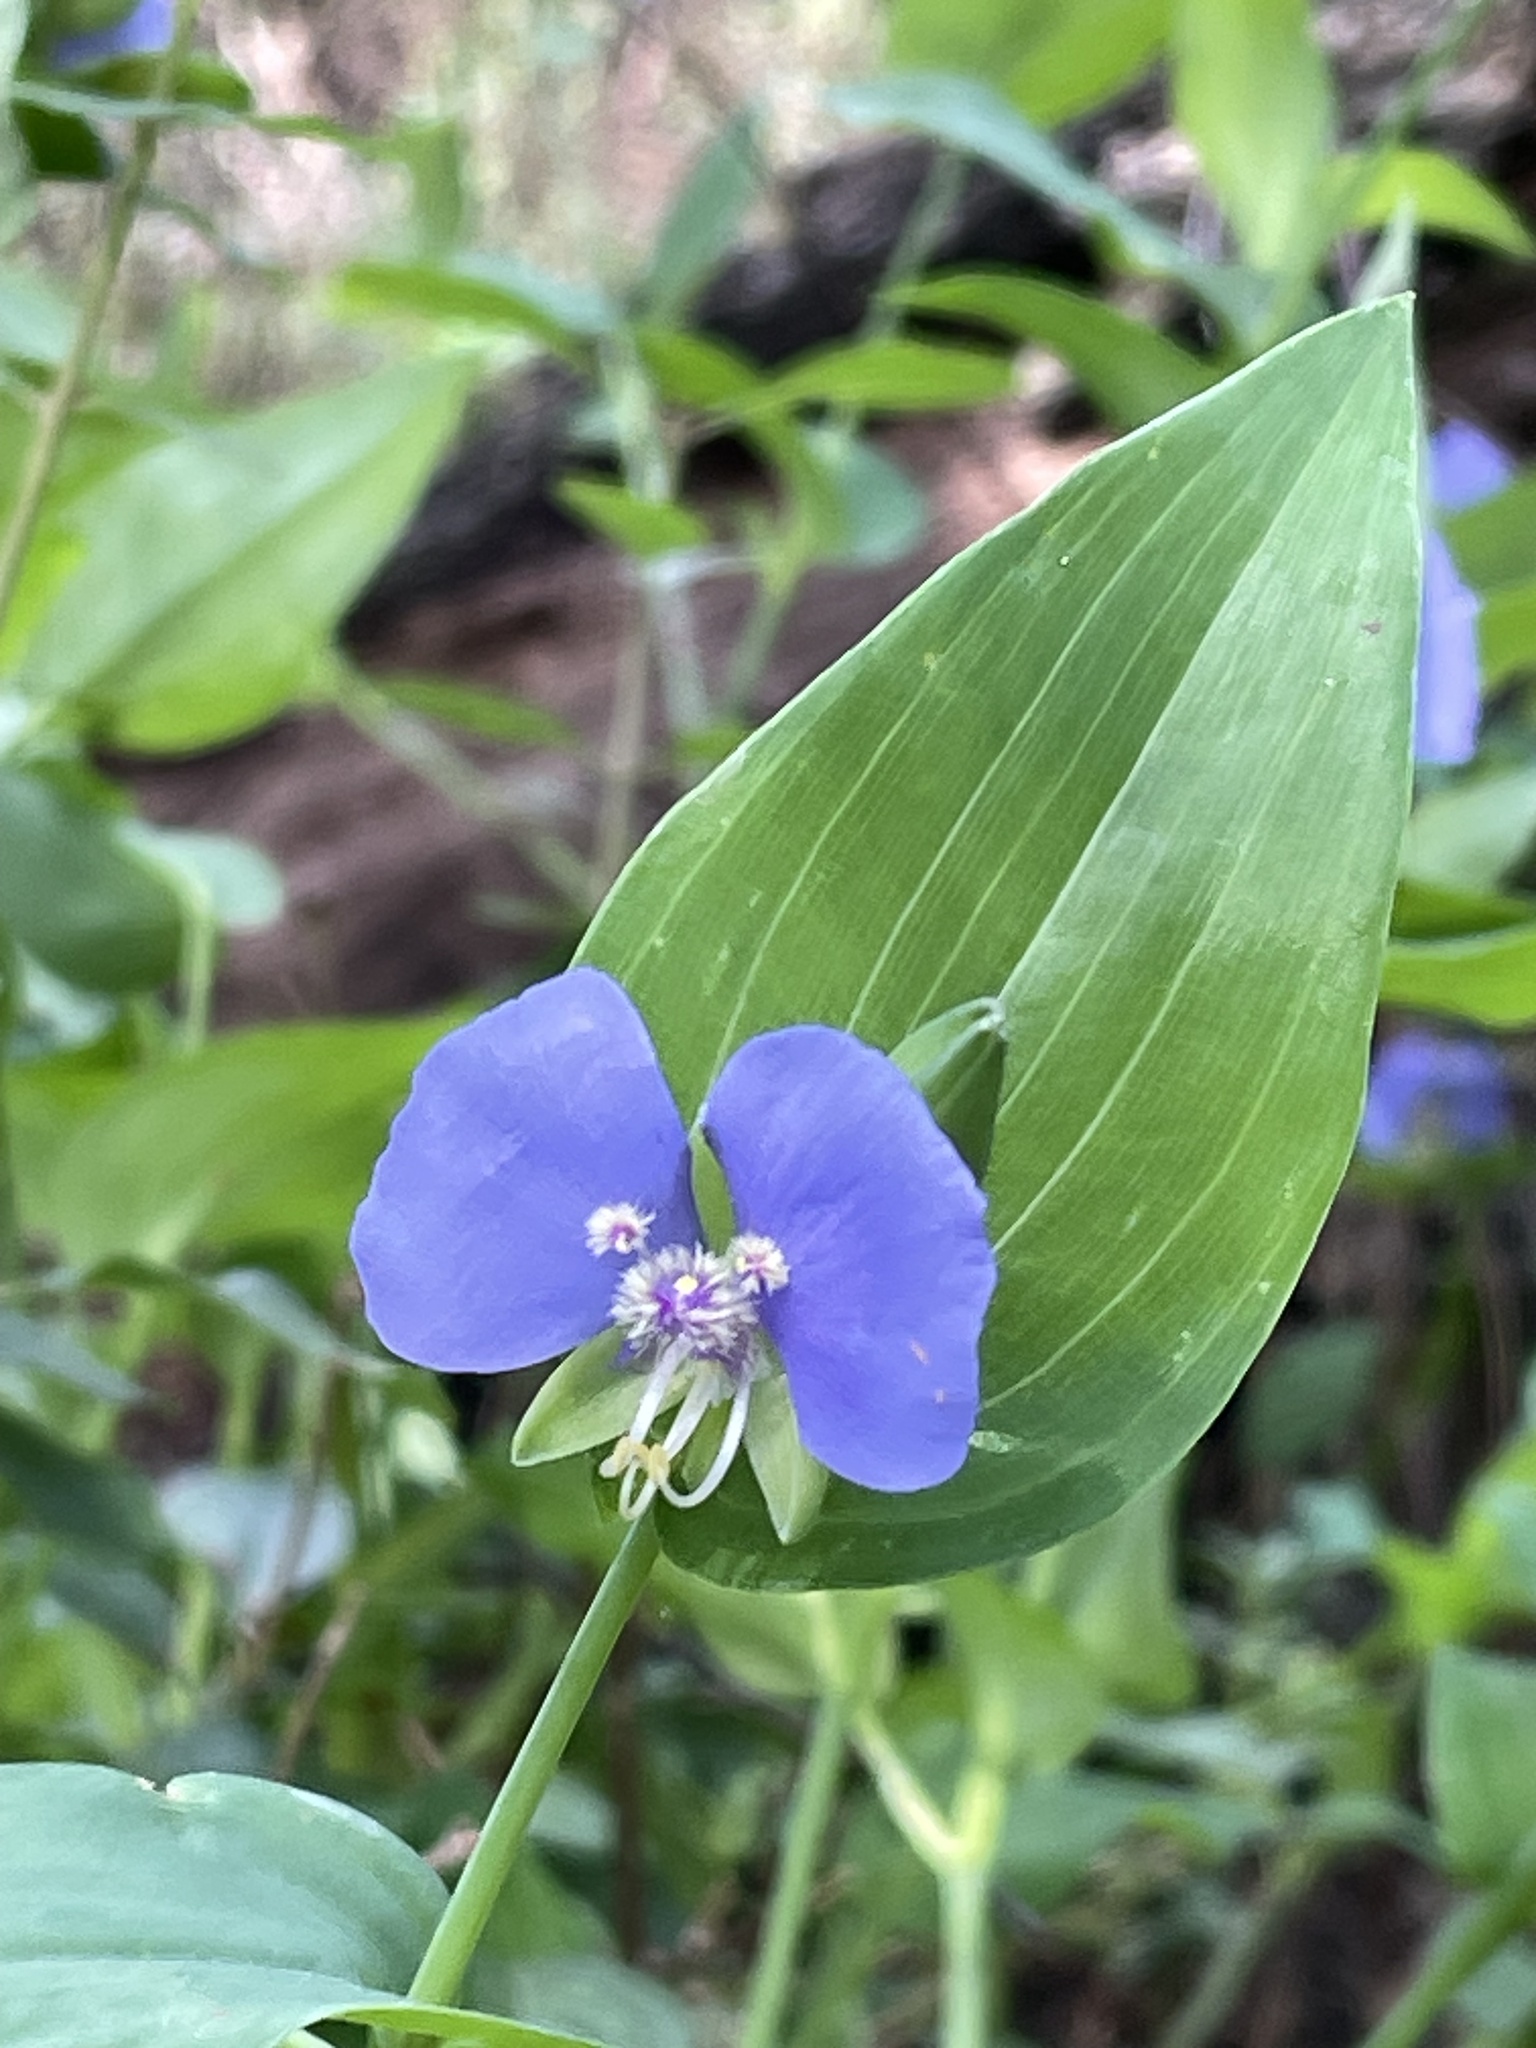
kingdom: Plantae
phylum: Tracheophyta
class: Liliopsida
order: Commelinales
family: Commelinaceae
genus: Tinantia
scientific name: Tinantia anomala
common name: False dayflower
